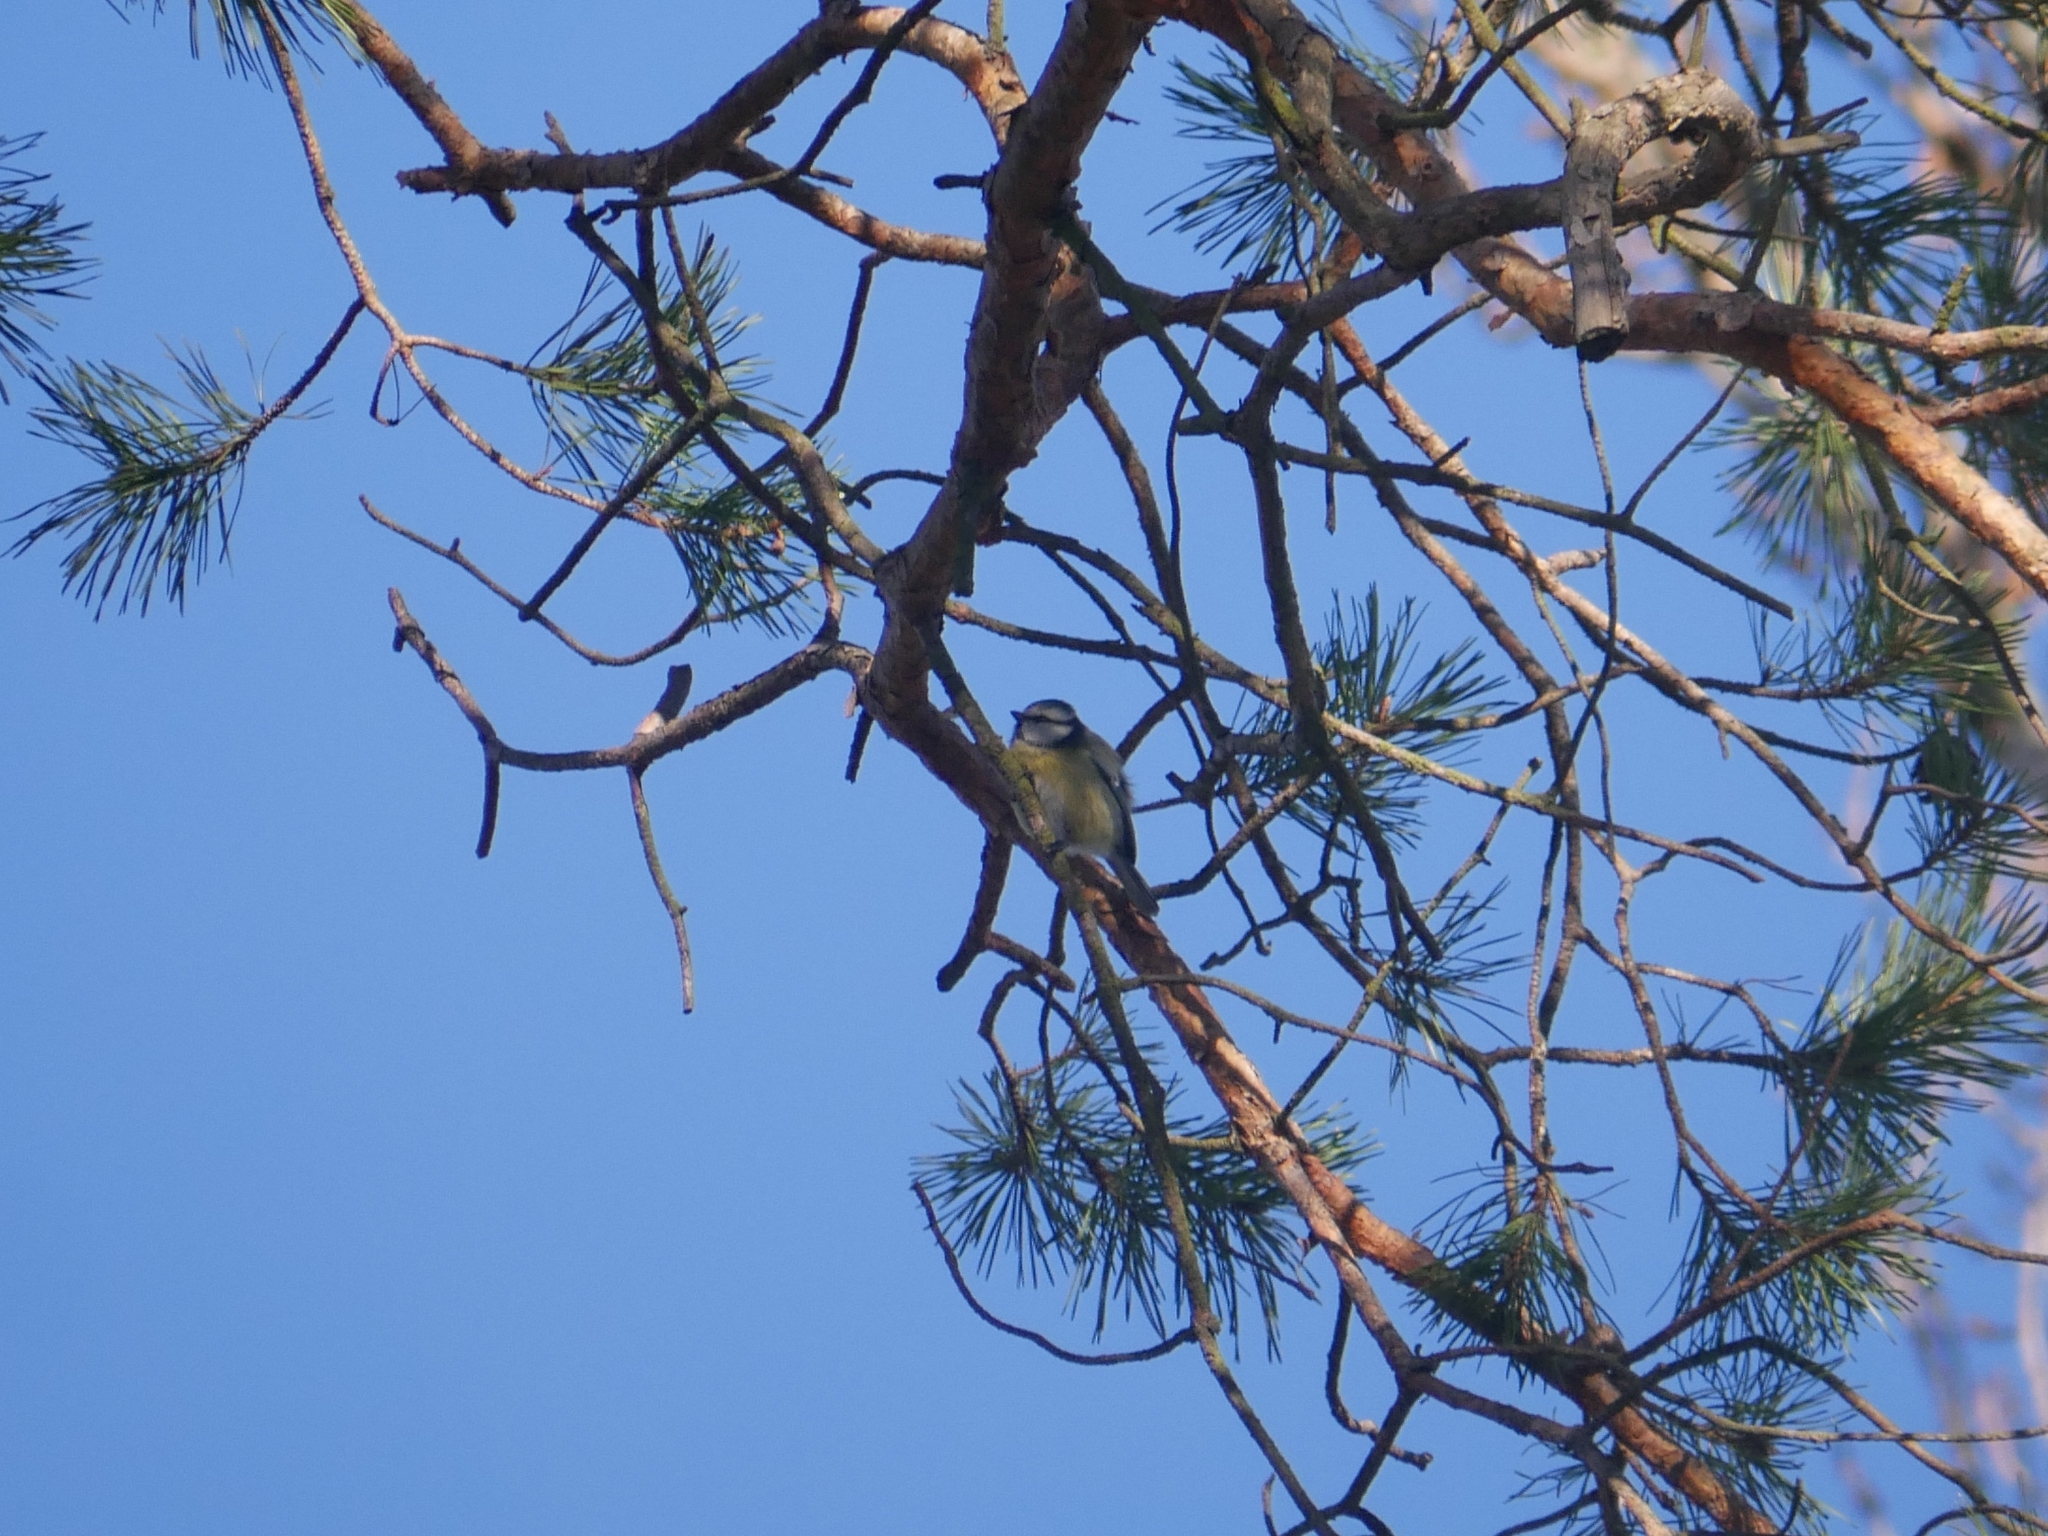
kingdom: Animalia
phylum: Chordata
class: Aves
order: Passeriformes
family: Paridae
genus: Cyanistes
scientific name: Cyanistes caeruleus
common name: Eurasian blue tit
